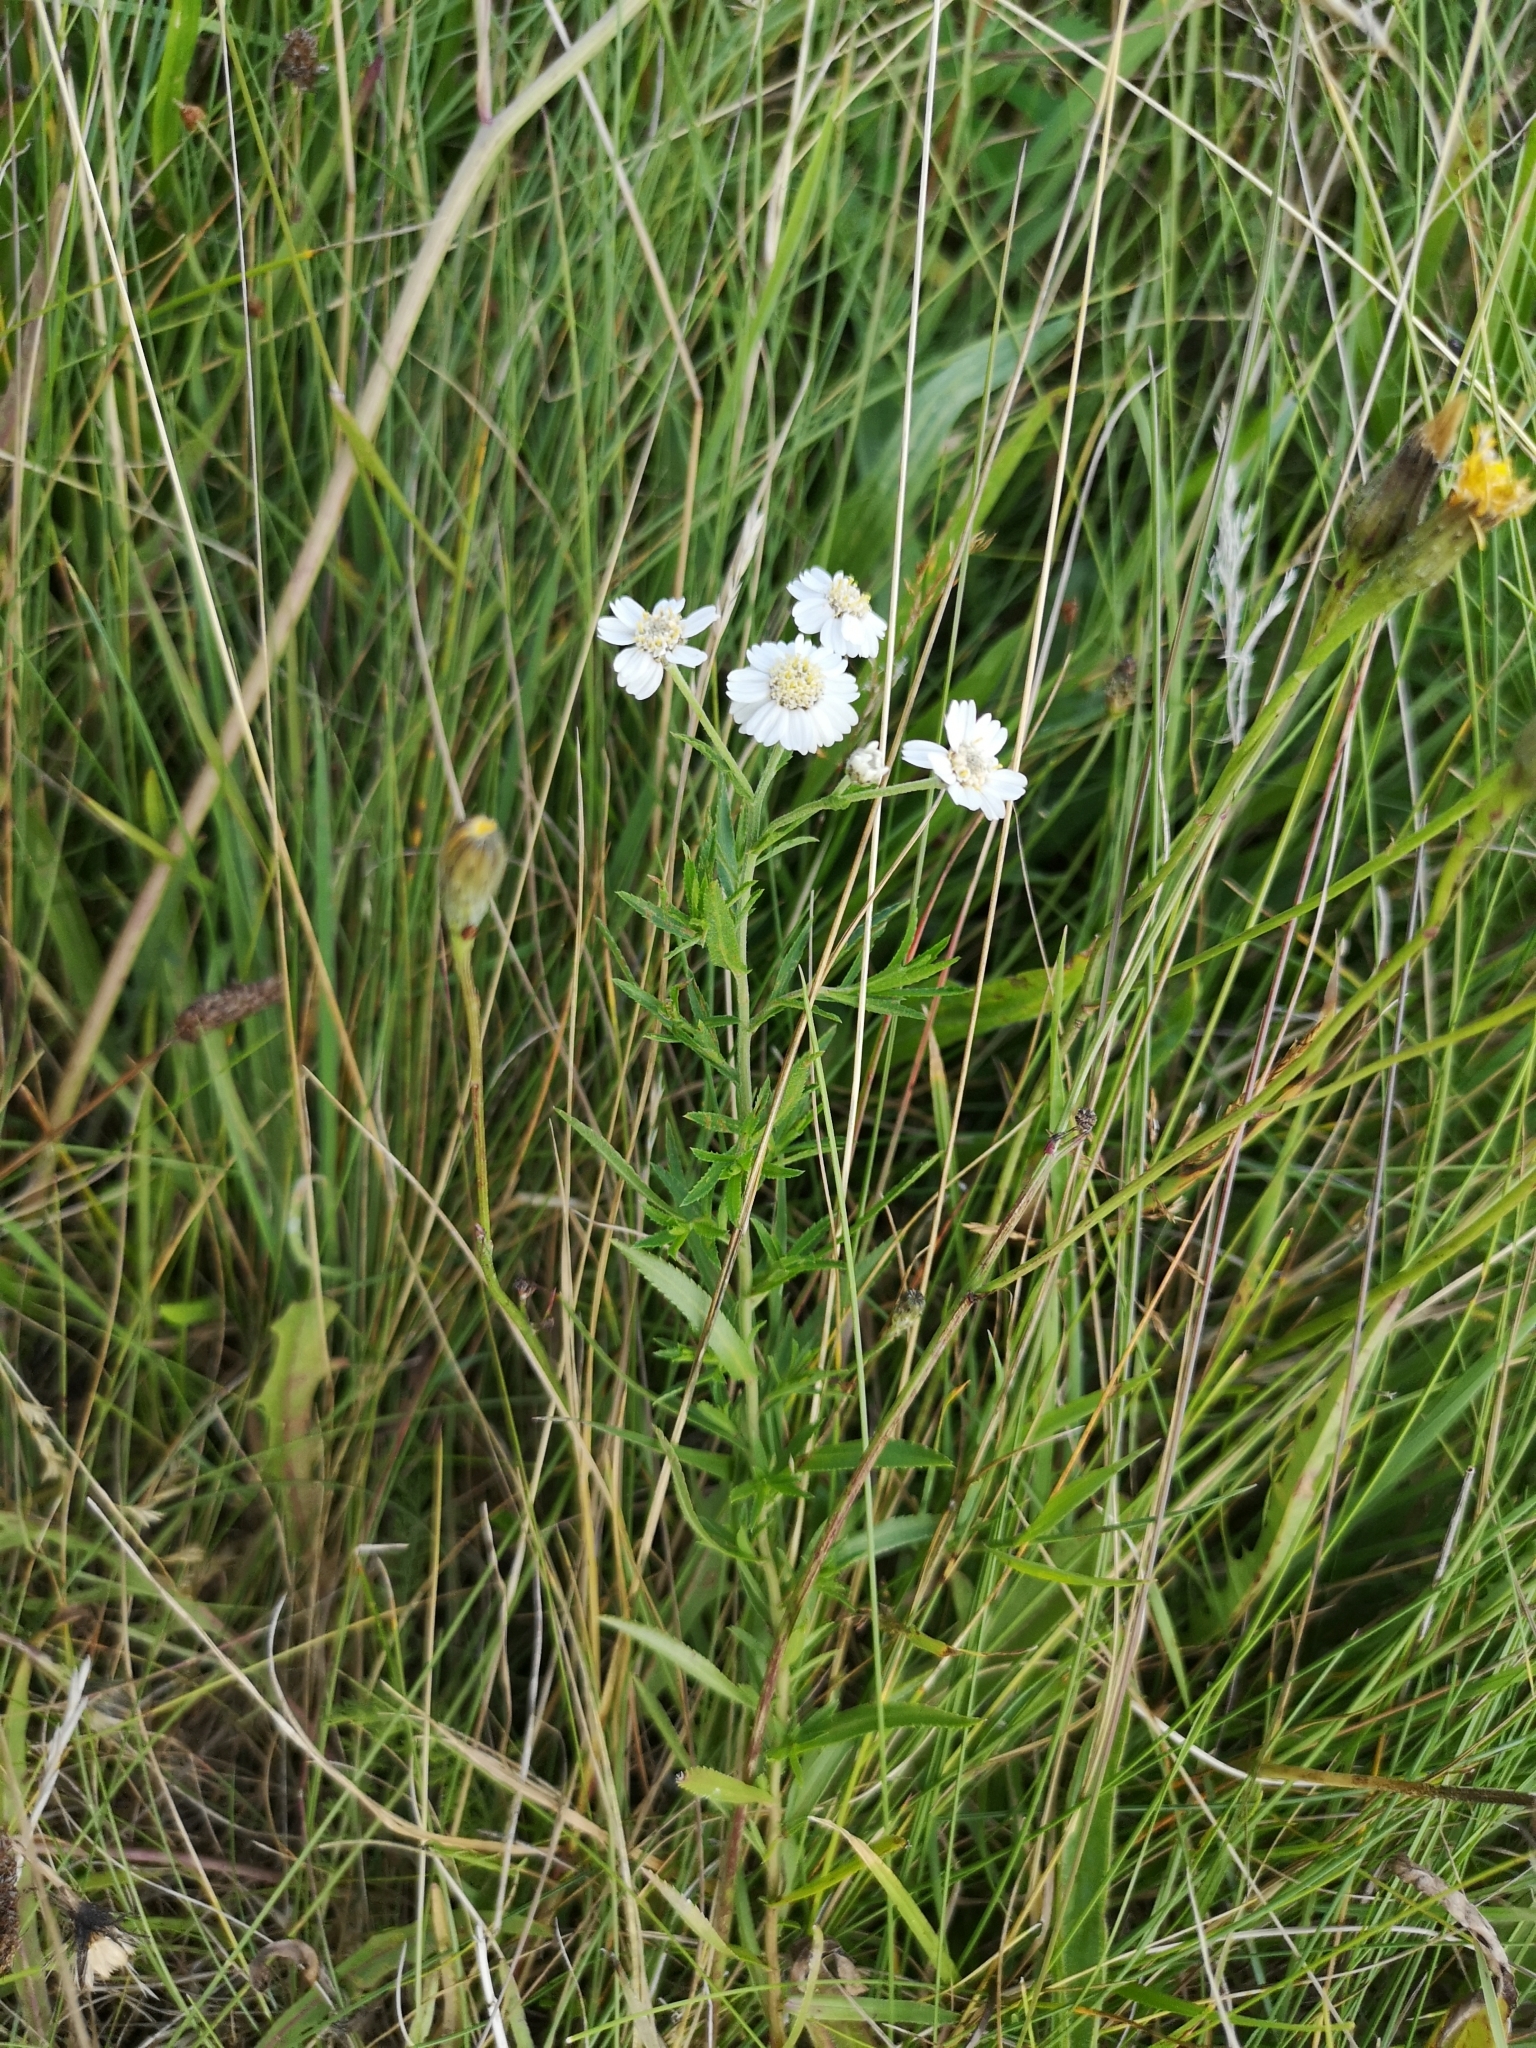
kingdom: Plantae
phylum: Tracheophyta
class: Magnoliopsida
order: Asterales
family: Asteraceae
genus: Achillea
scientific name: Achillea ptarmica
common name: Sneezeweed
